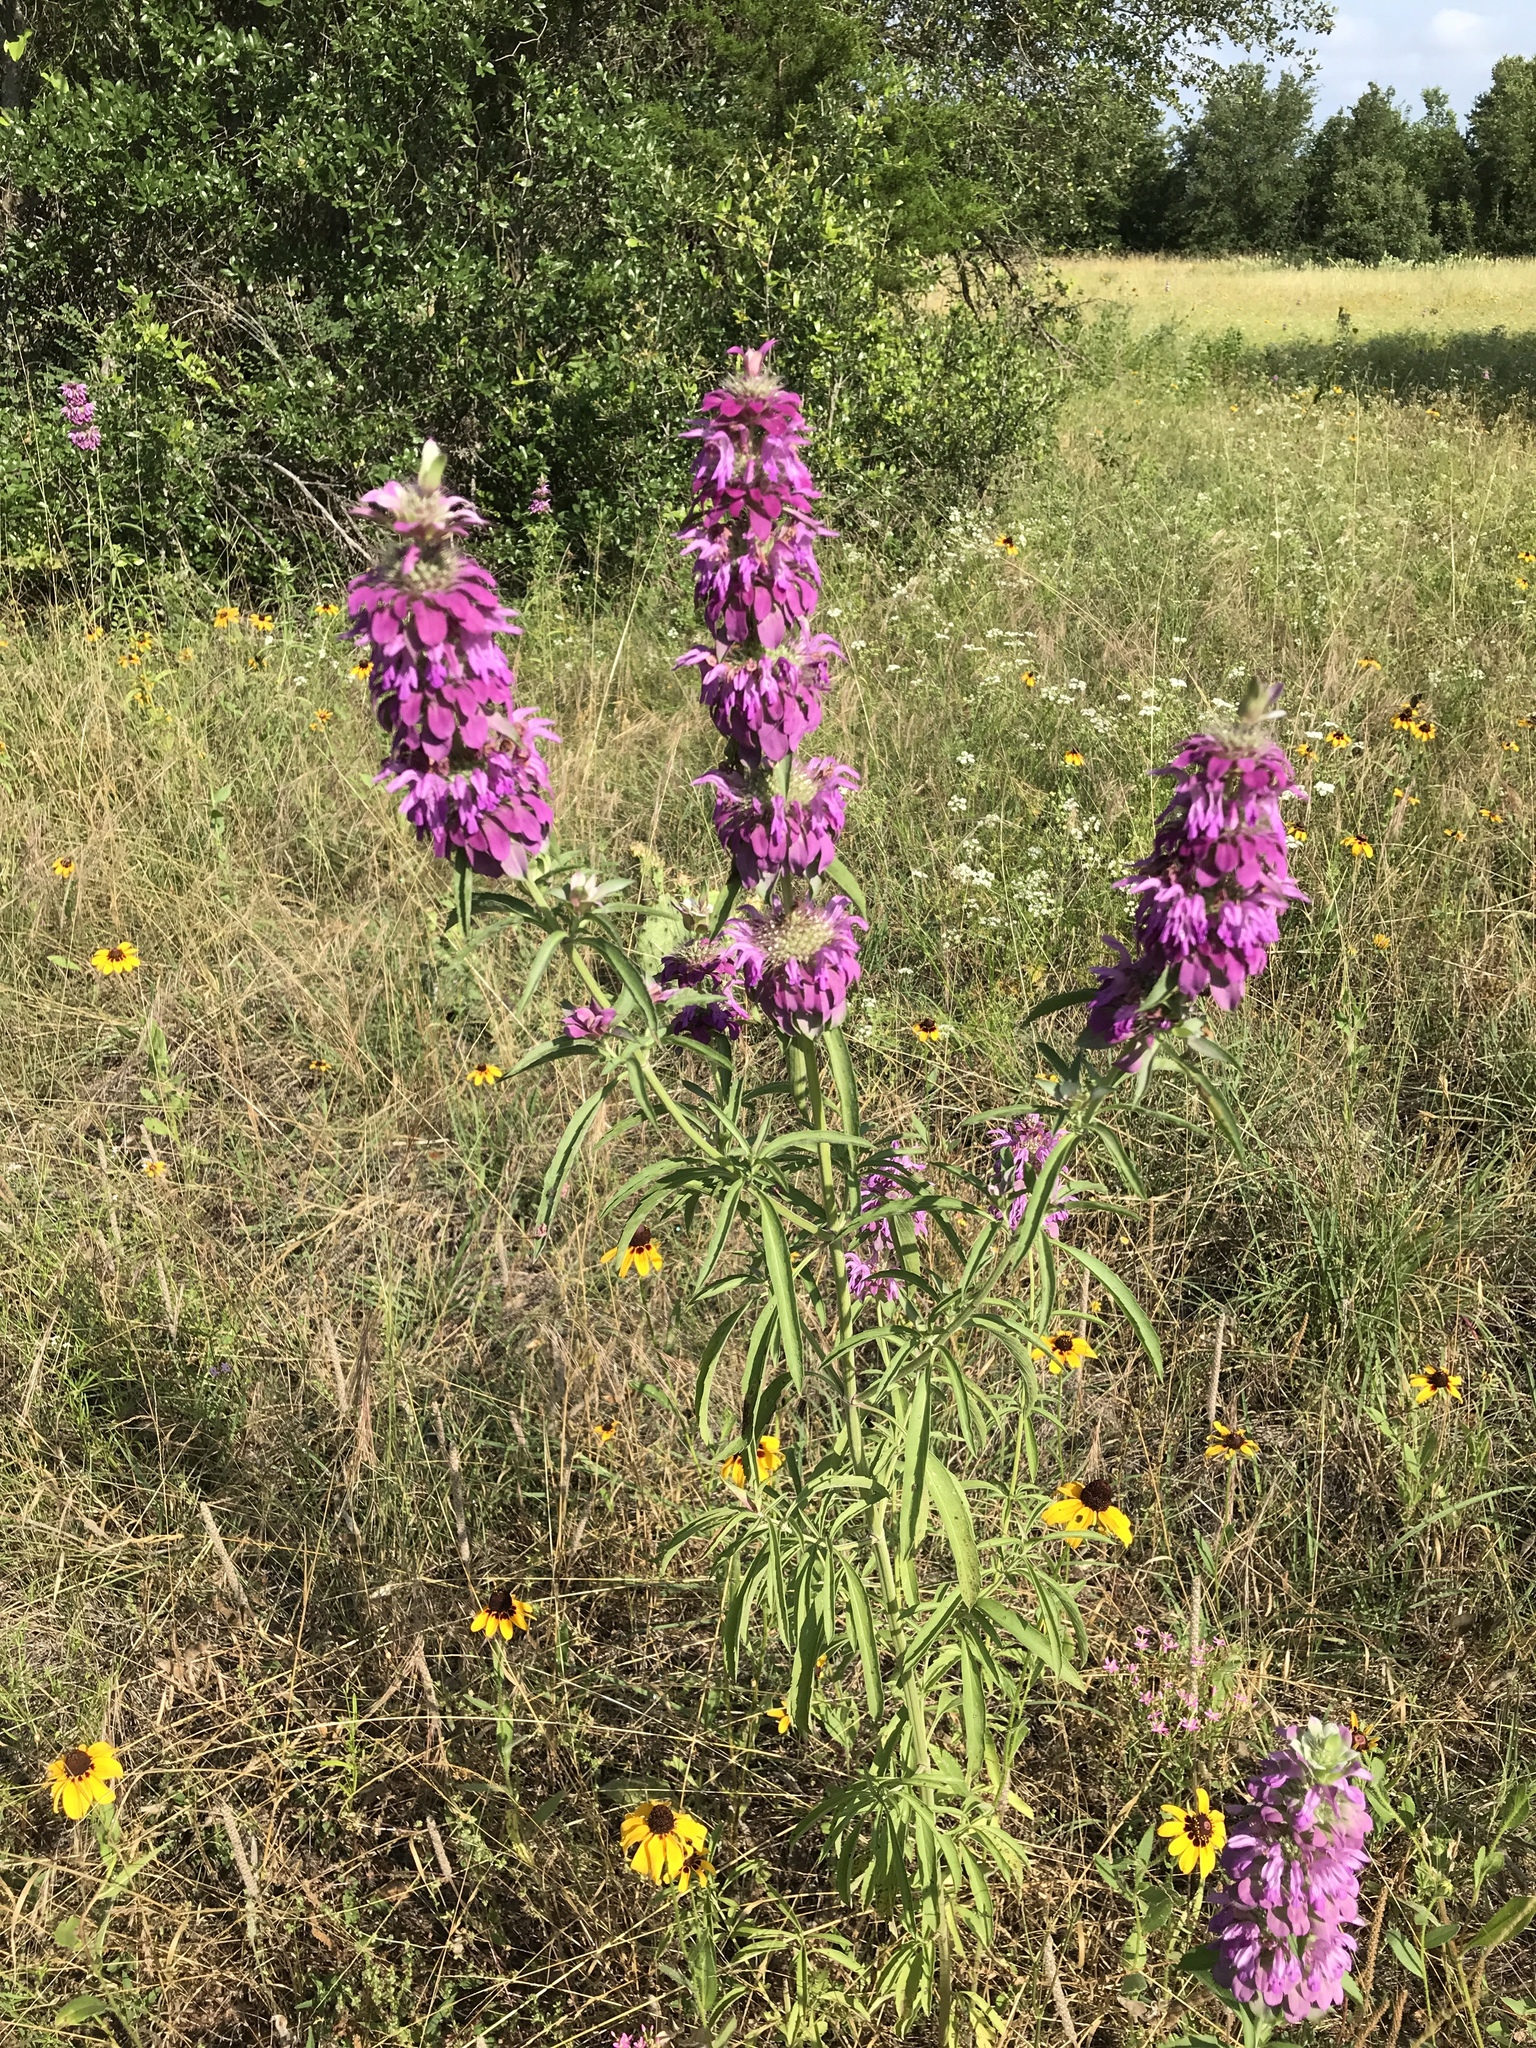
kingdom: Plantae
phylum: Tracheophyta
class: Magnoliopsida
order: Lamiales
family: Lamiaceae
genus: Monarda
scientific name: Monarda citriodora
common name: Lemon beebalm
